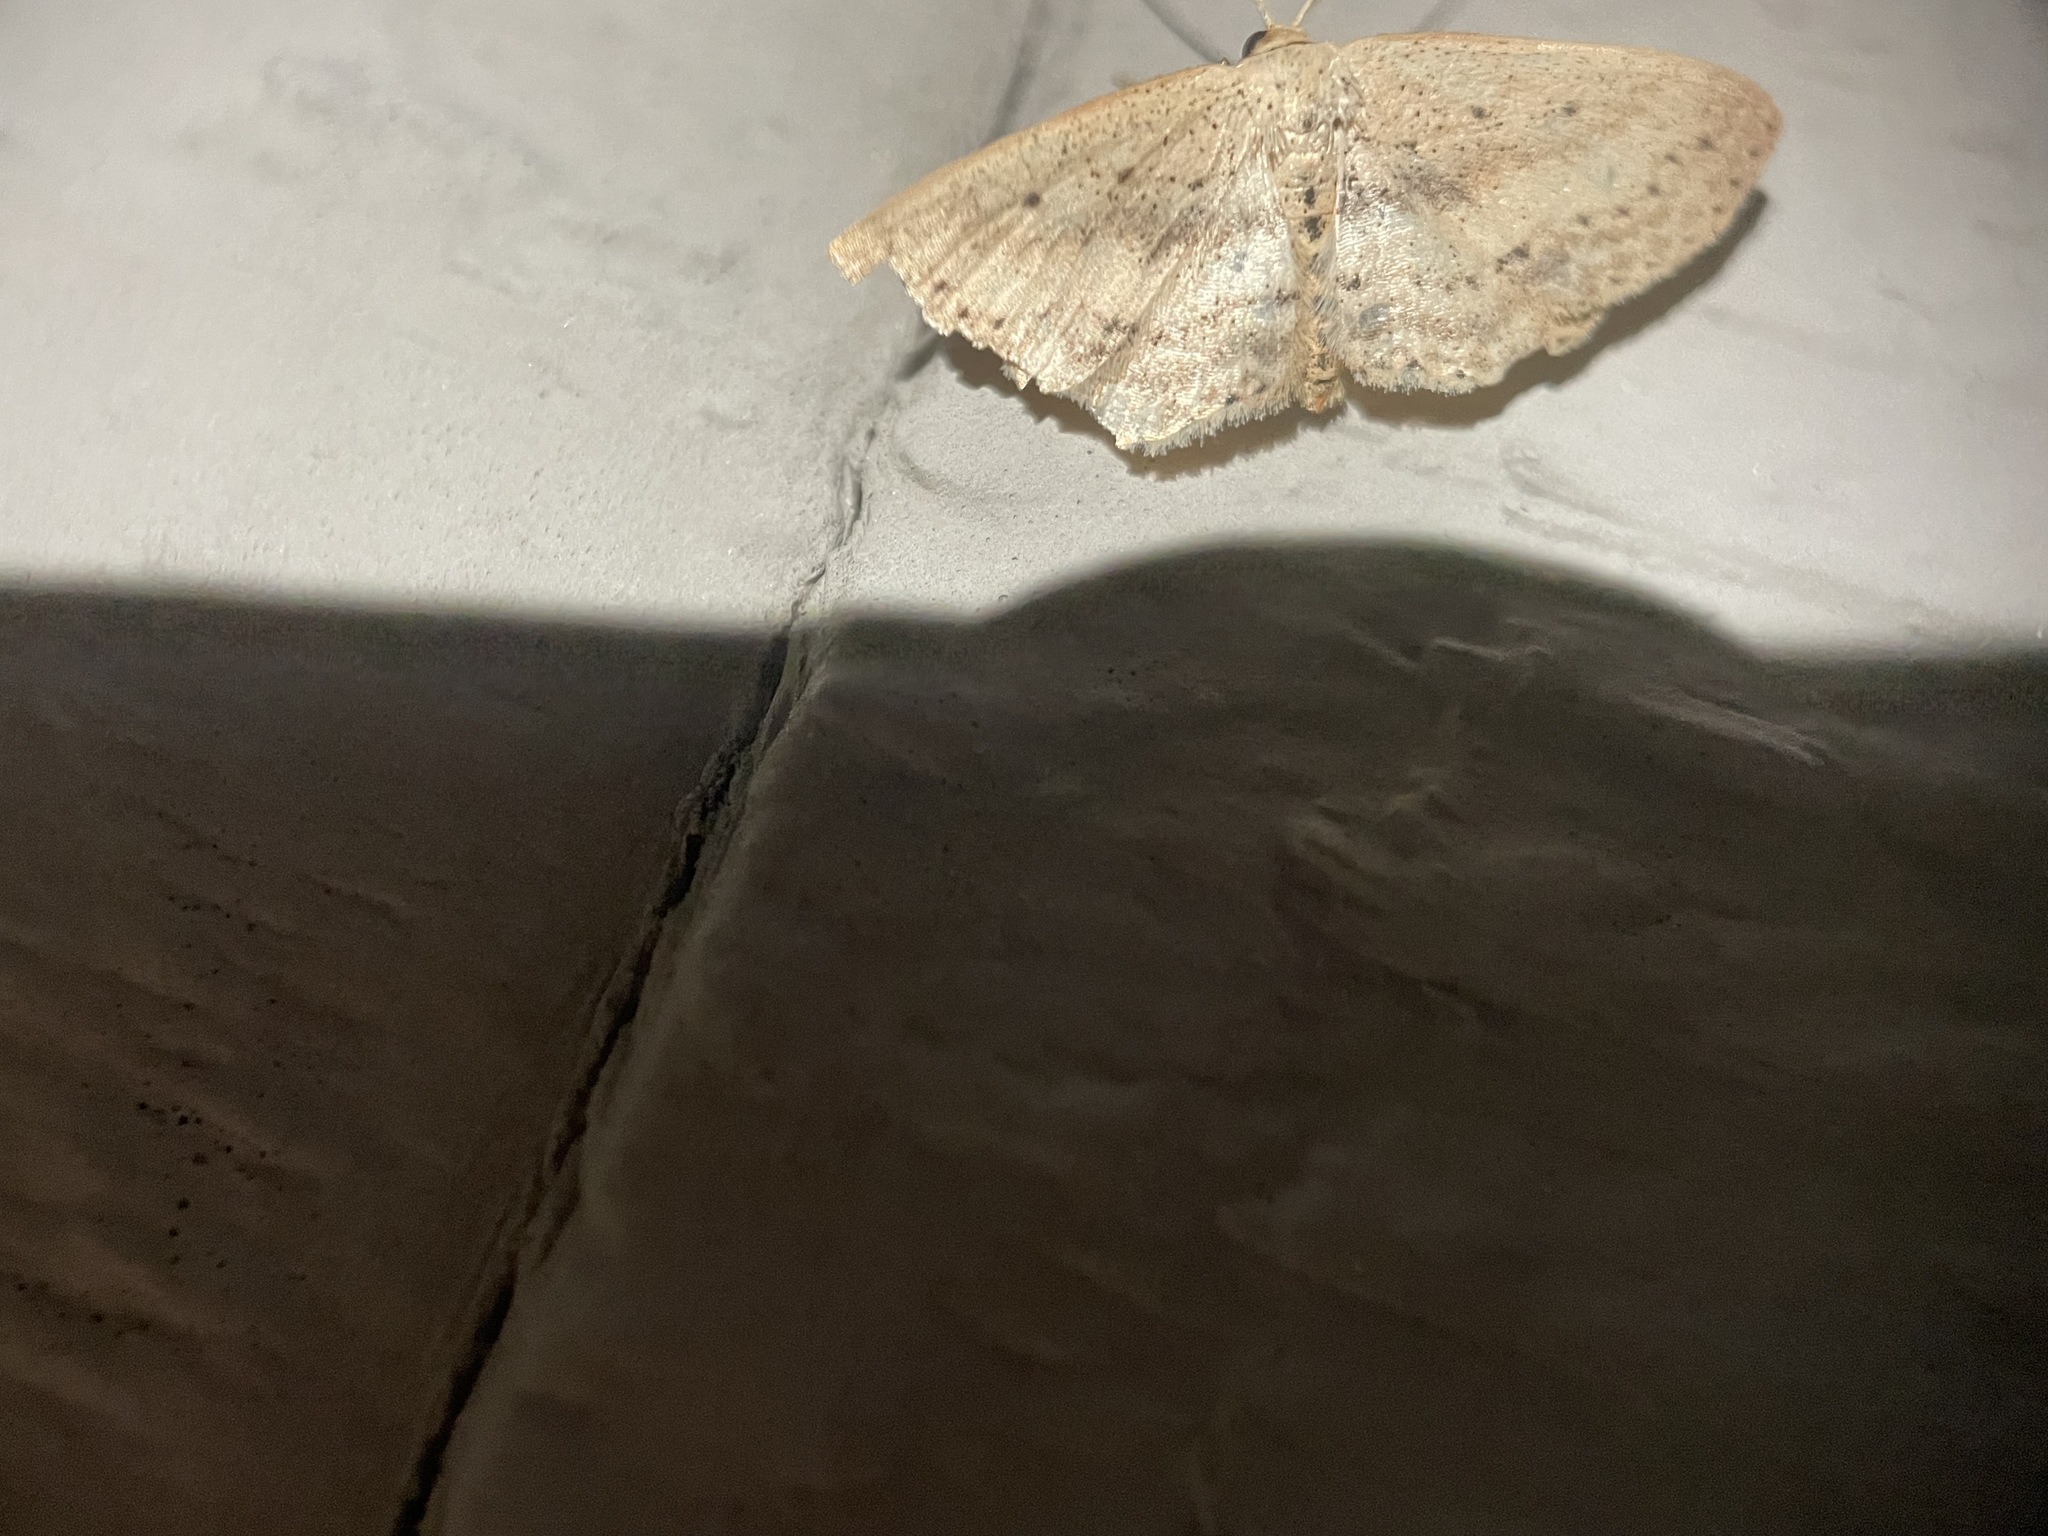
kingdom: Animalia
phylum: Arthropoda
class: Insecta
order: Lepidoptera
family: Geometridae
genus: Scopula
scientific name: Scopula aemulata
